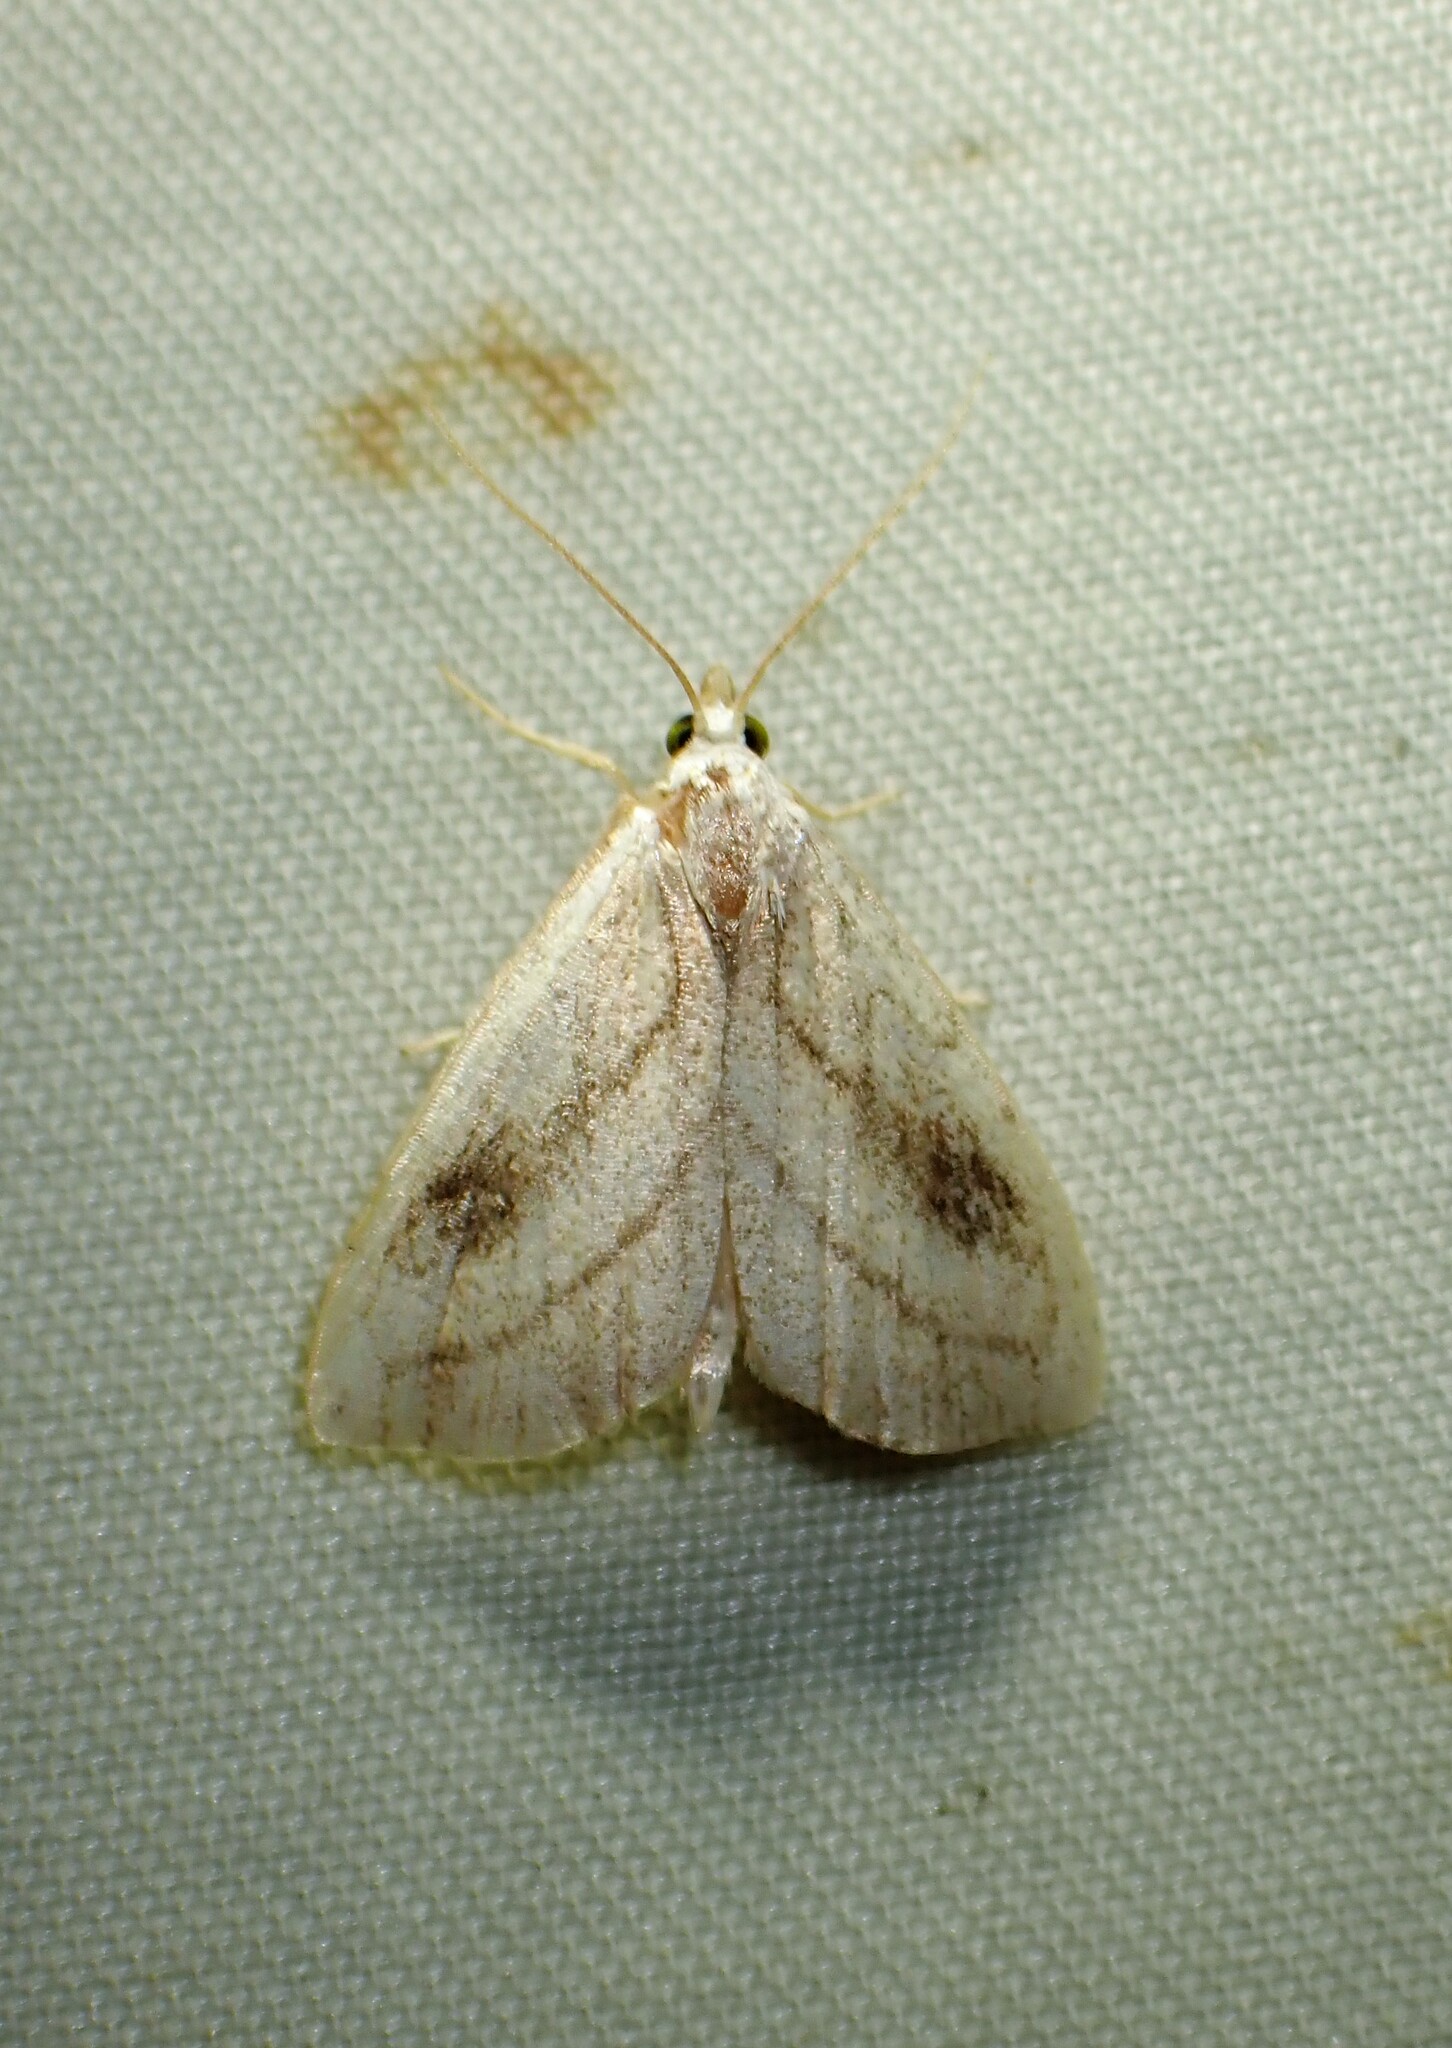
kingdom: Animalia
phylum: Arthropoda
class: Insecta
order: Lepidoptera
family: Erebidae
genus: Rivula
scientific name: Rivula propinqualis
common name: Spotted grass moth
